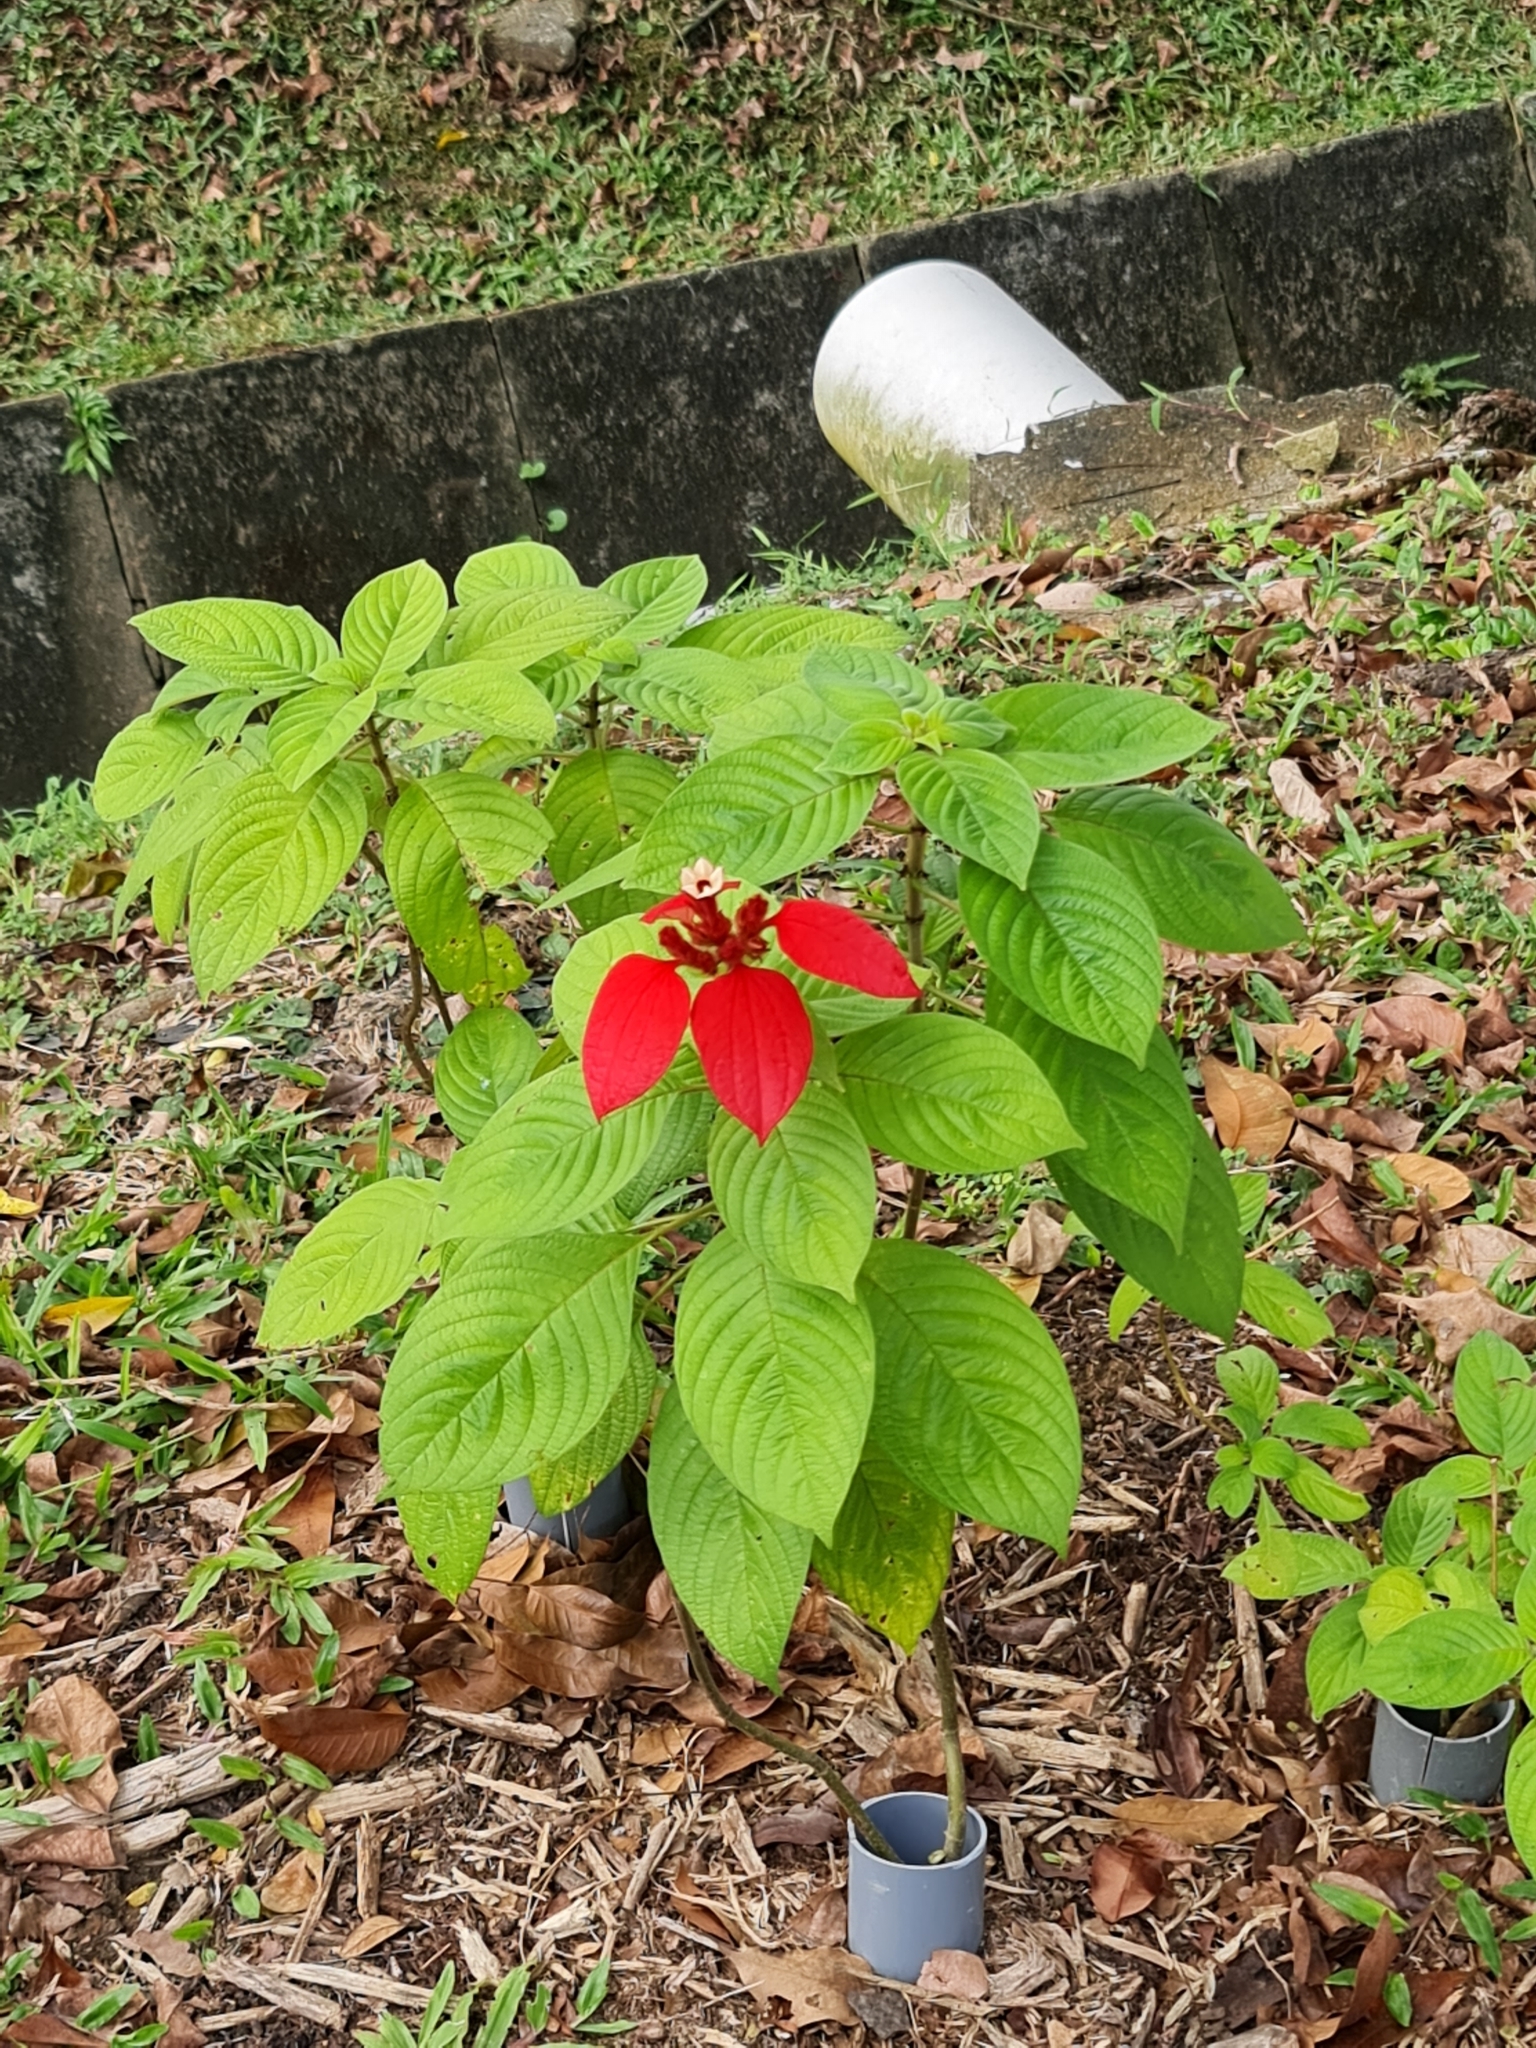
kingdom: Plantae
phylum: Tracheophyta
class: Magnoliopsida
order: Gentianales
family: Rubiaceae
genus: Mussaenda
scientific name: Mussaenda erythrophylla
